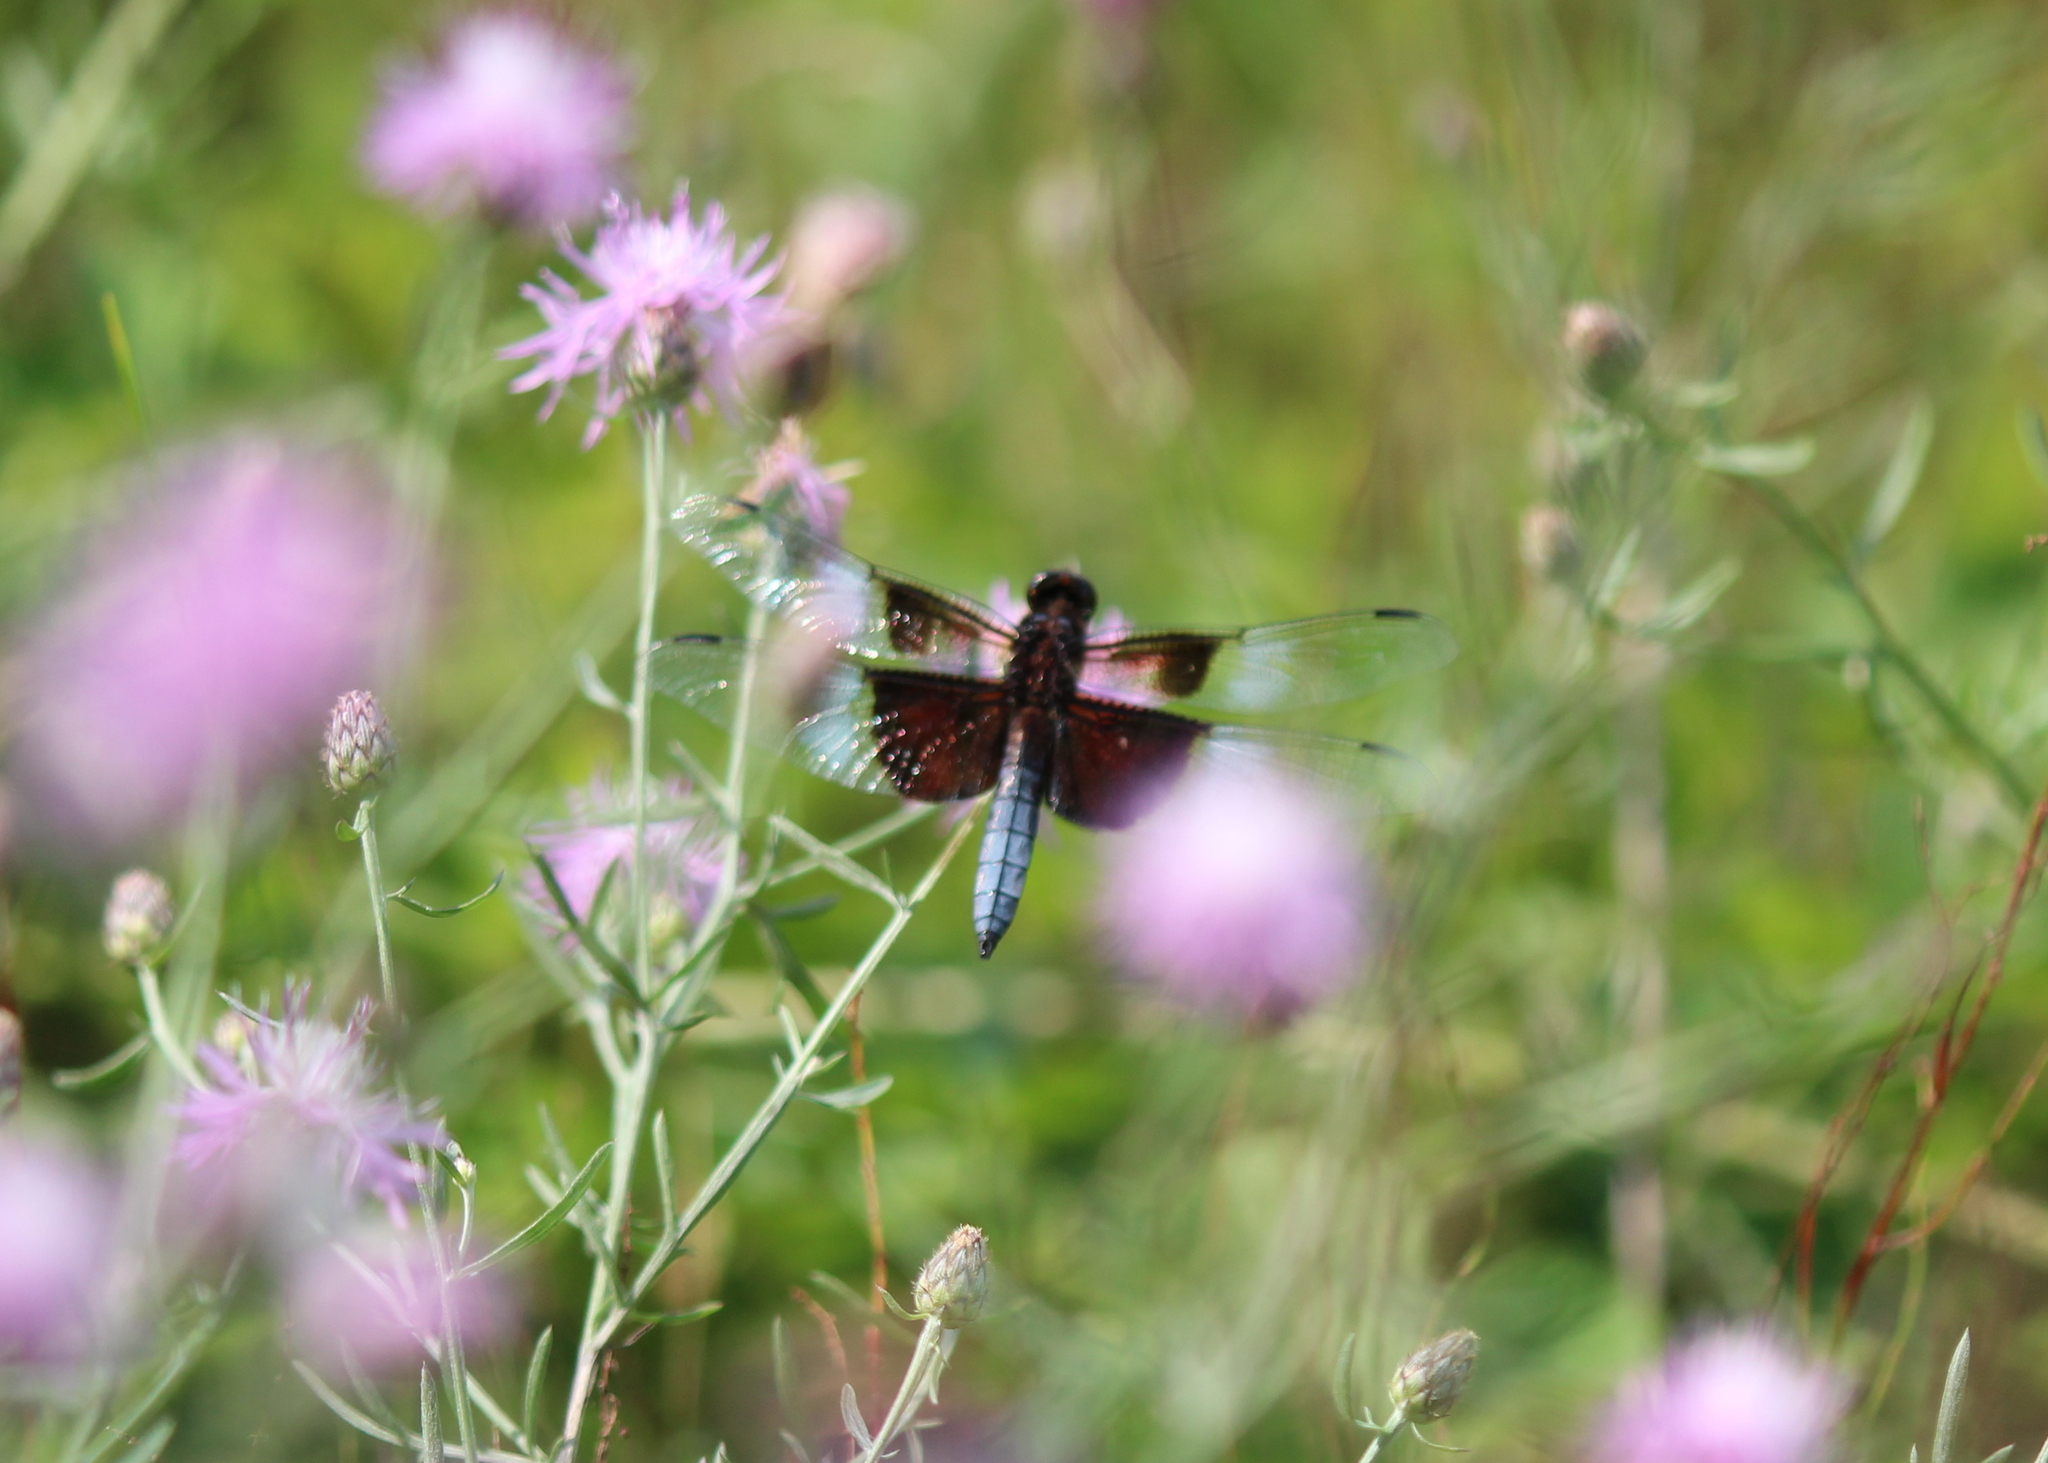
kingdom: Animalia
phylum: Arthropoda
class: Insecta
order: Odonata
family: Libellulidae
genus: Libellula
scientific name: Libellula luctuosa
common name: Widow skimmer
